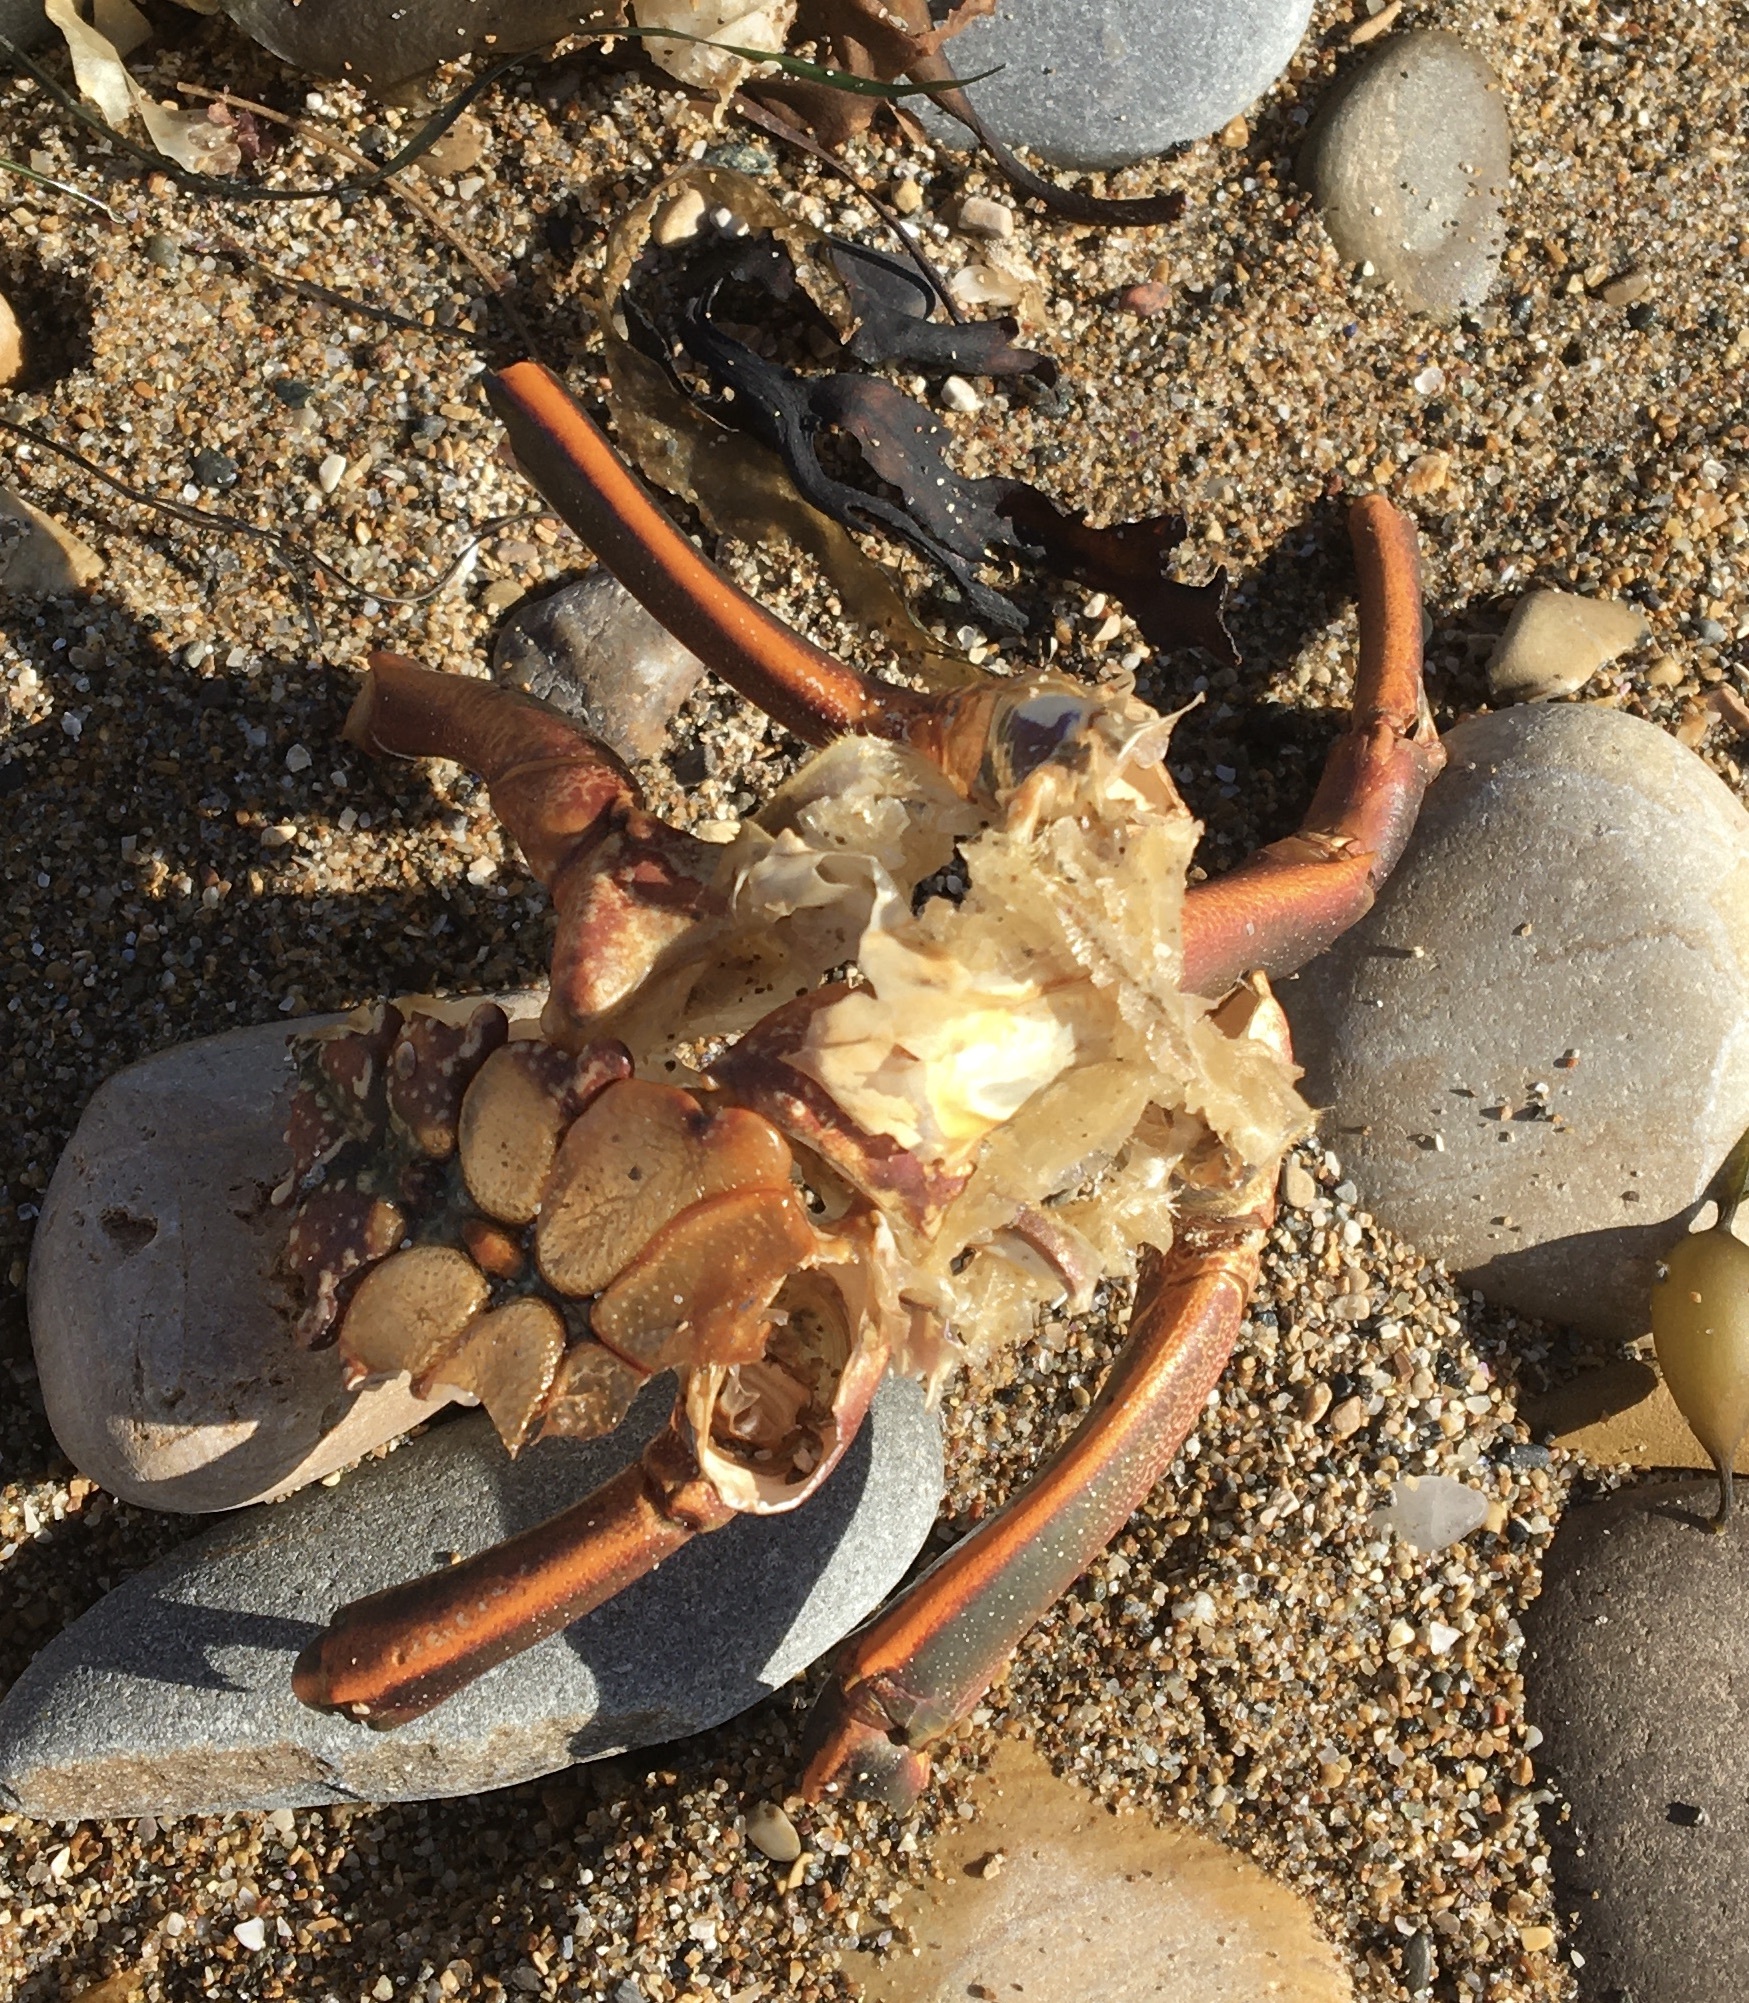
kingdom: Animalia
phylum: Arthropoda
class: Malacostraca
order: Decapoda
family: Palinuridae
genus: Panulirus
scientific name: Panulirus interruptus
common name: California spiny lobster
